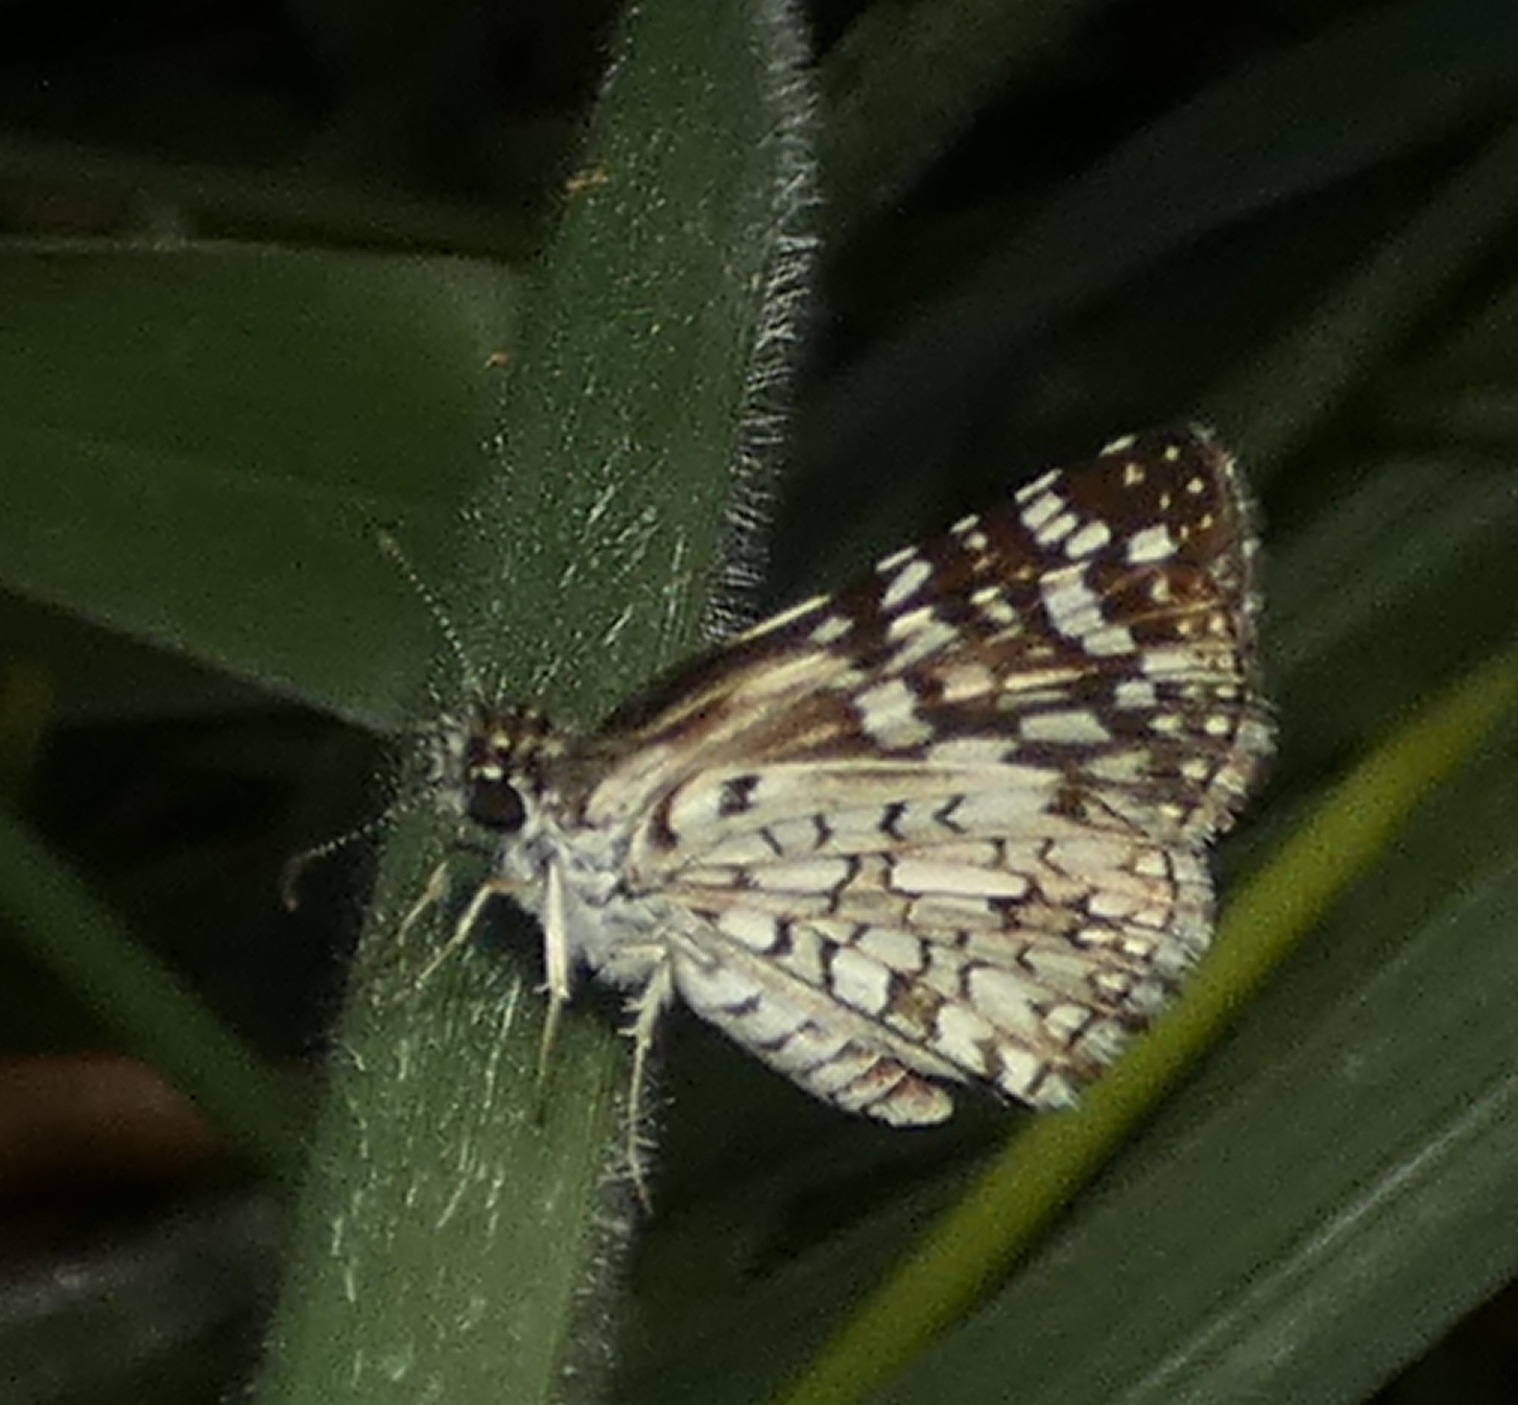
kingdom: Animalia
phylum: Arthropoda
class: Insecta
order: Lepidoptera
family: Hesperiidae
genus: Pyrgus
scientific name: Pyrgus oileus
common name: Tropical checkered-skipper
